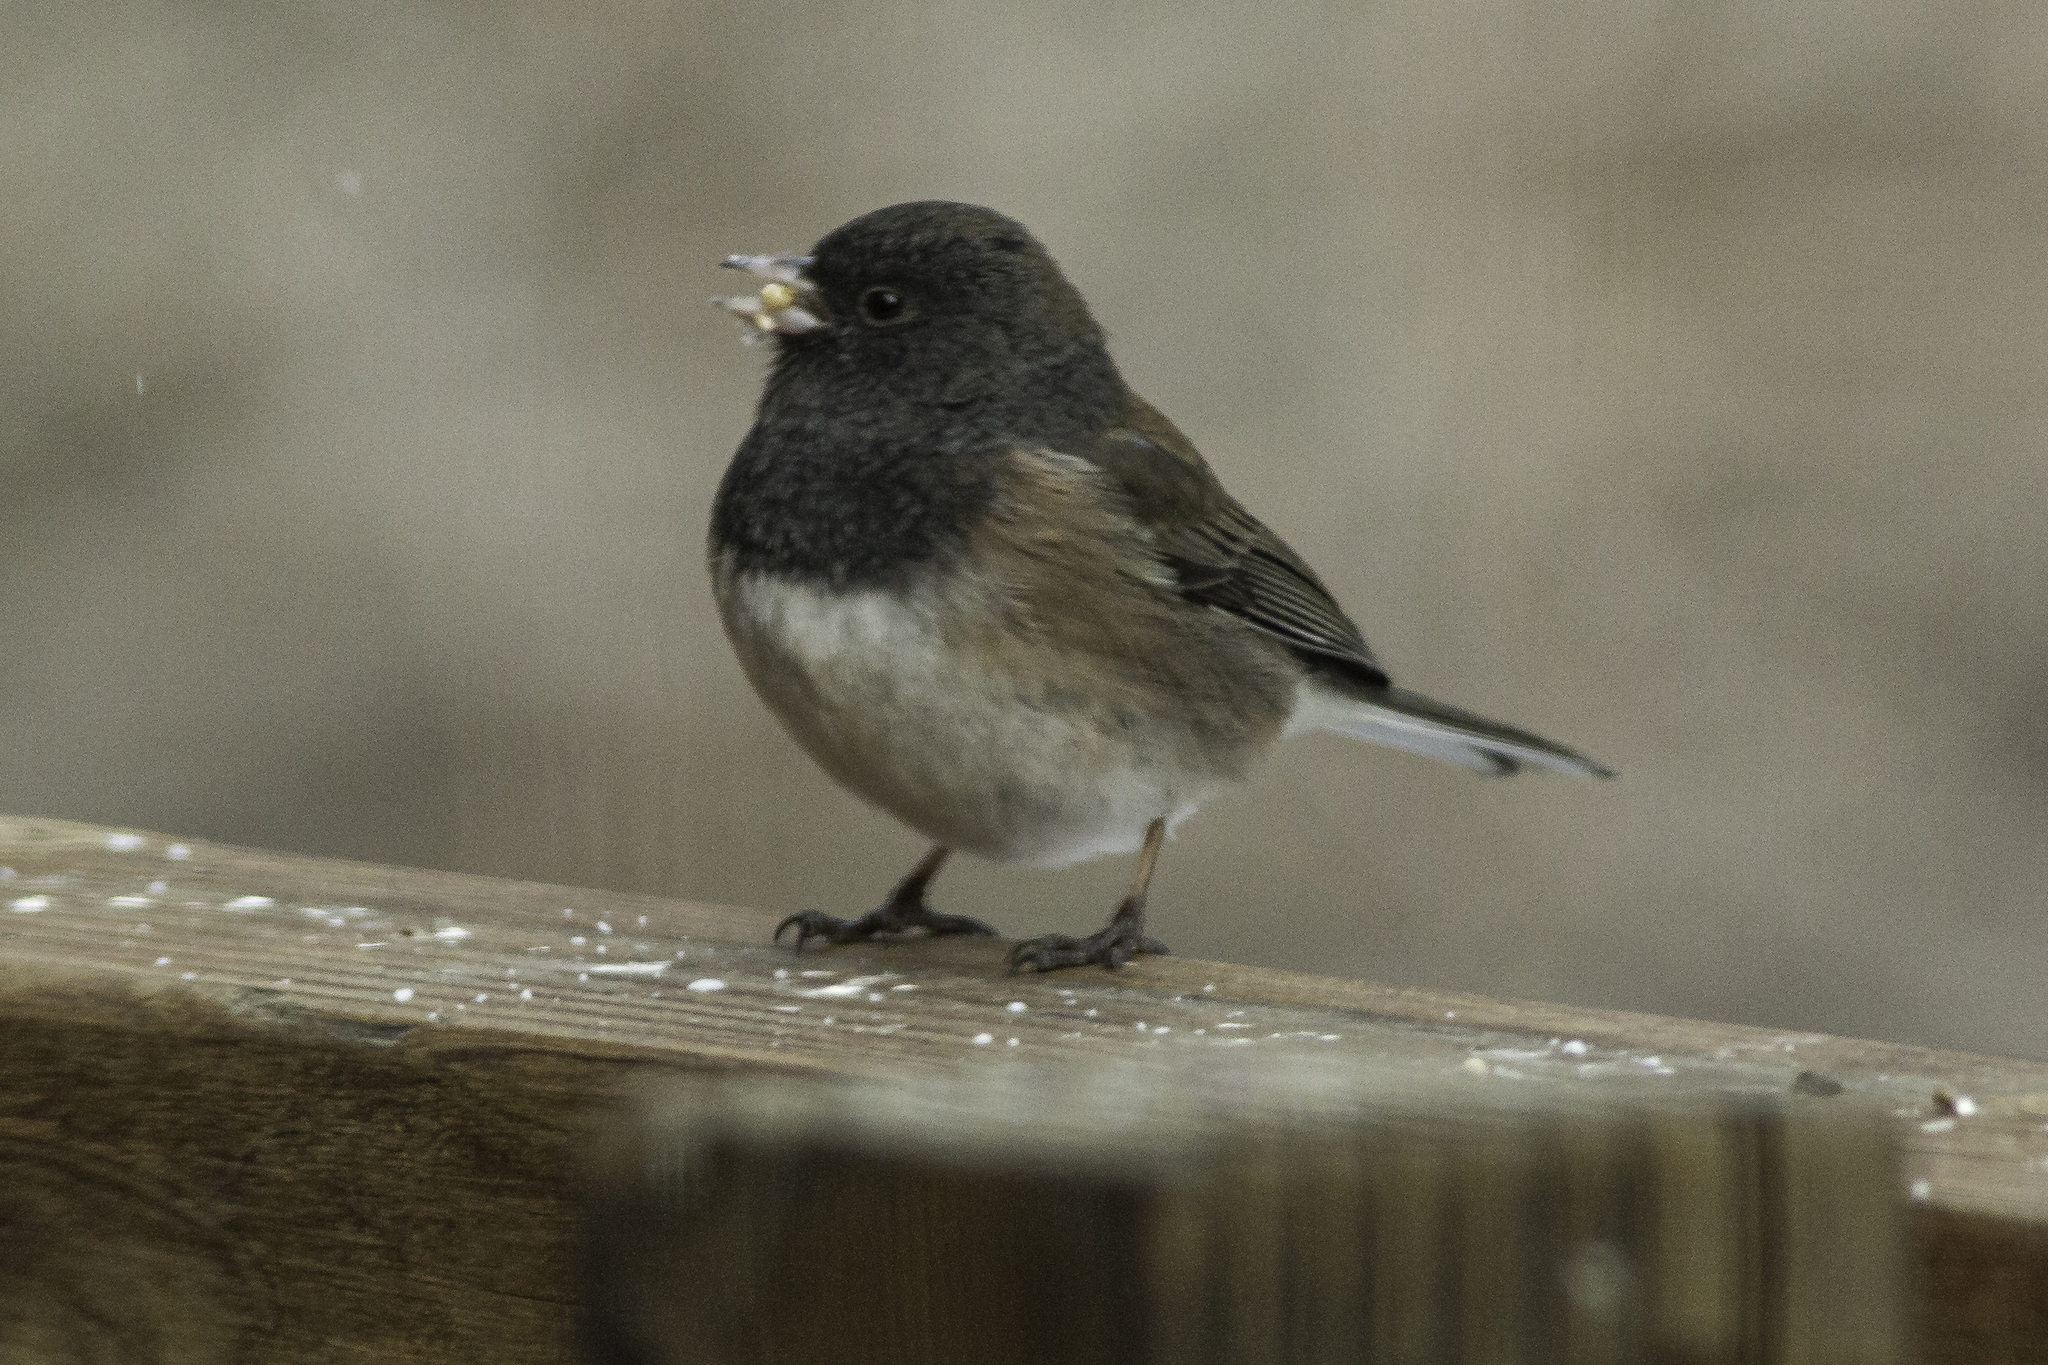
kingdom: Animalia
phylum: Chordata
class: Aves
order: Passeriformes
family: Passerellidae
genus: Junco
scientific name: Junco hyemalis
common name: Dark-eyed junco
